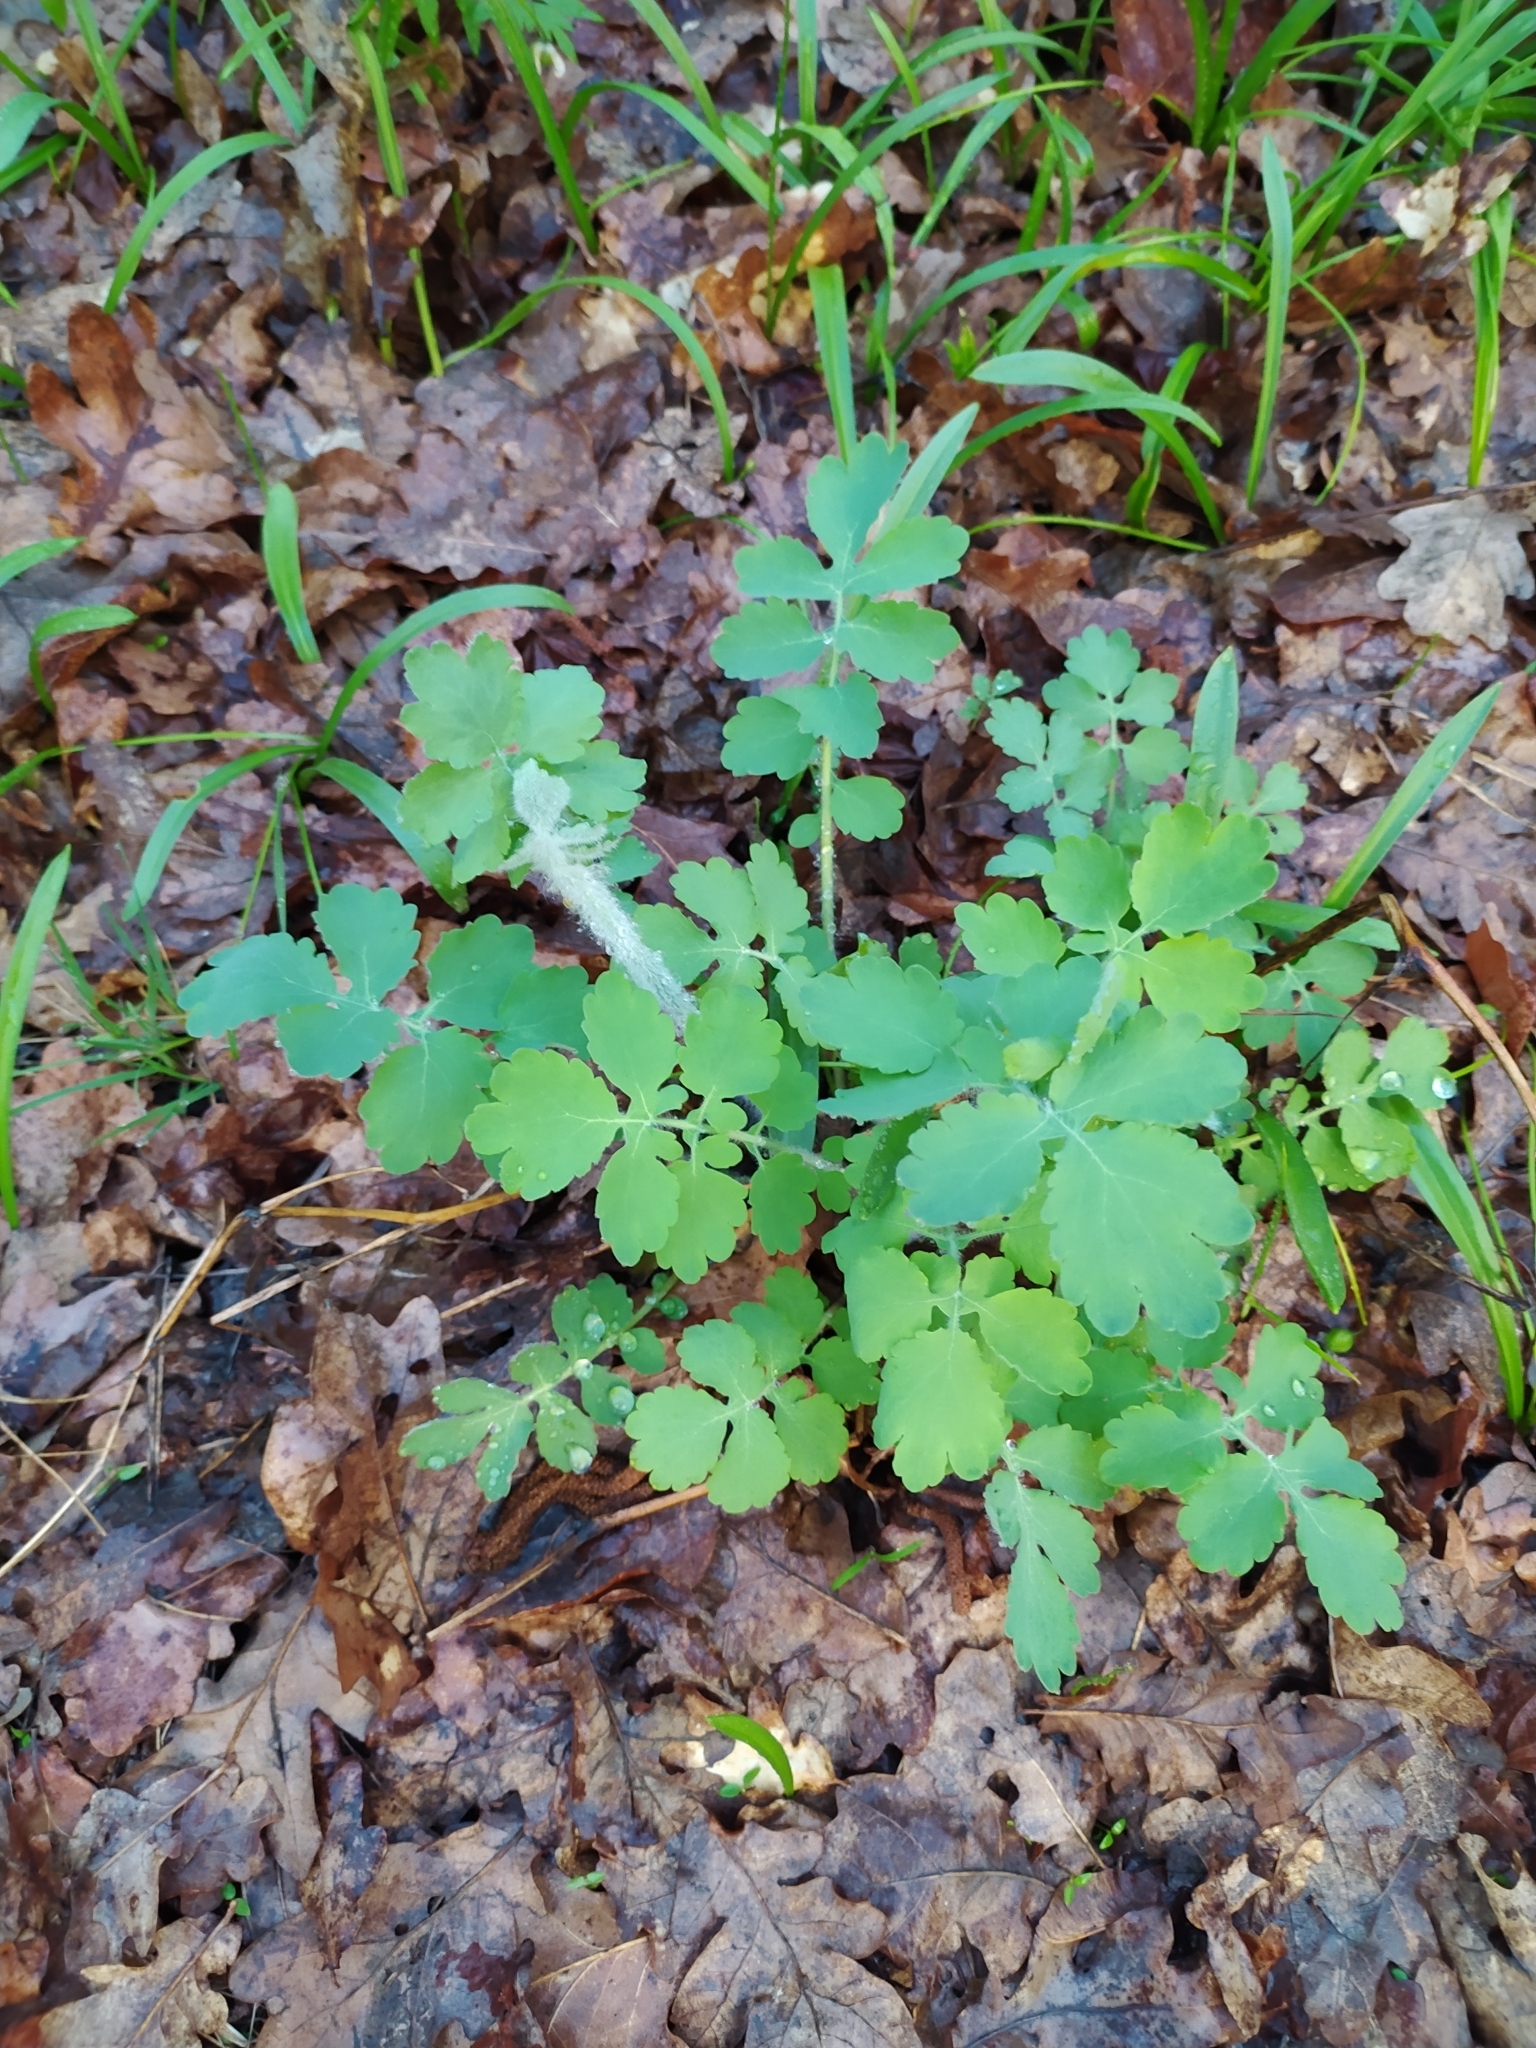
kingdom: Plantae
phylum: Tracheophyta
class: Magnoliopsida
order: Ranunculales
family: Papaveraceae
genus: Chelidonium
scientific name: Chelidonium majus
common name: Greater celandine
